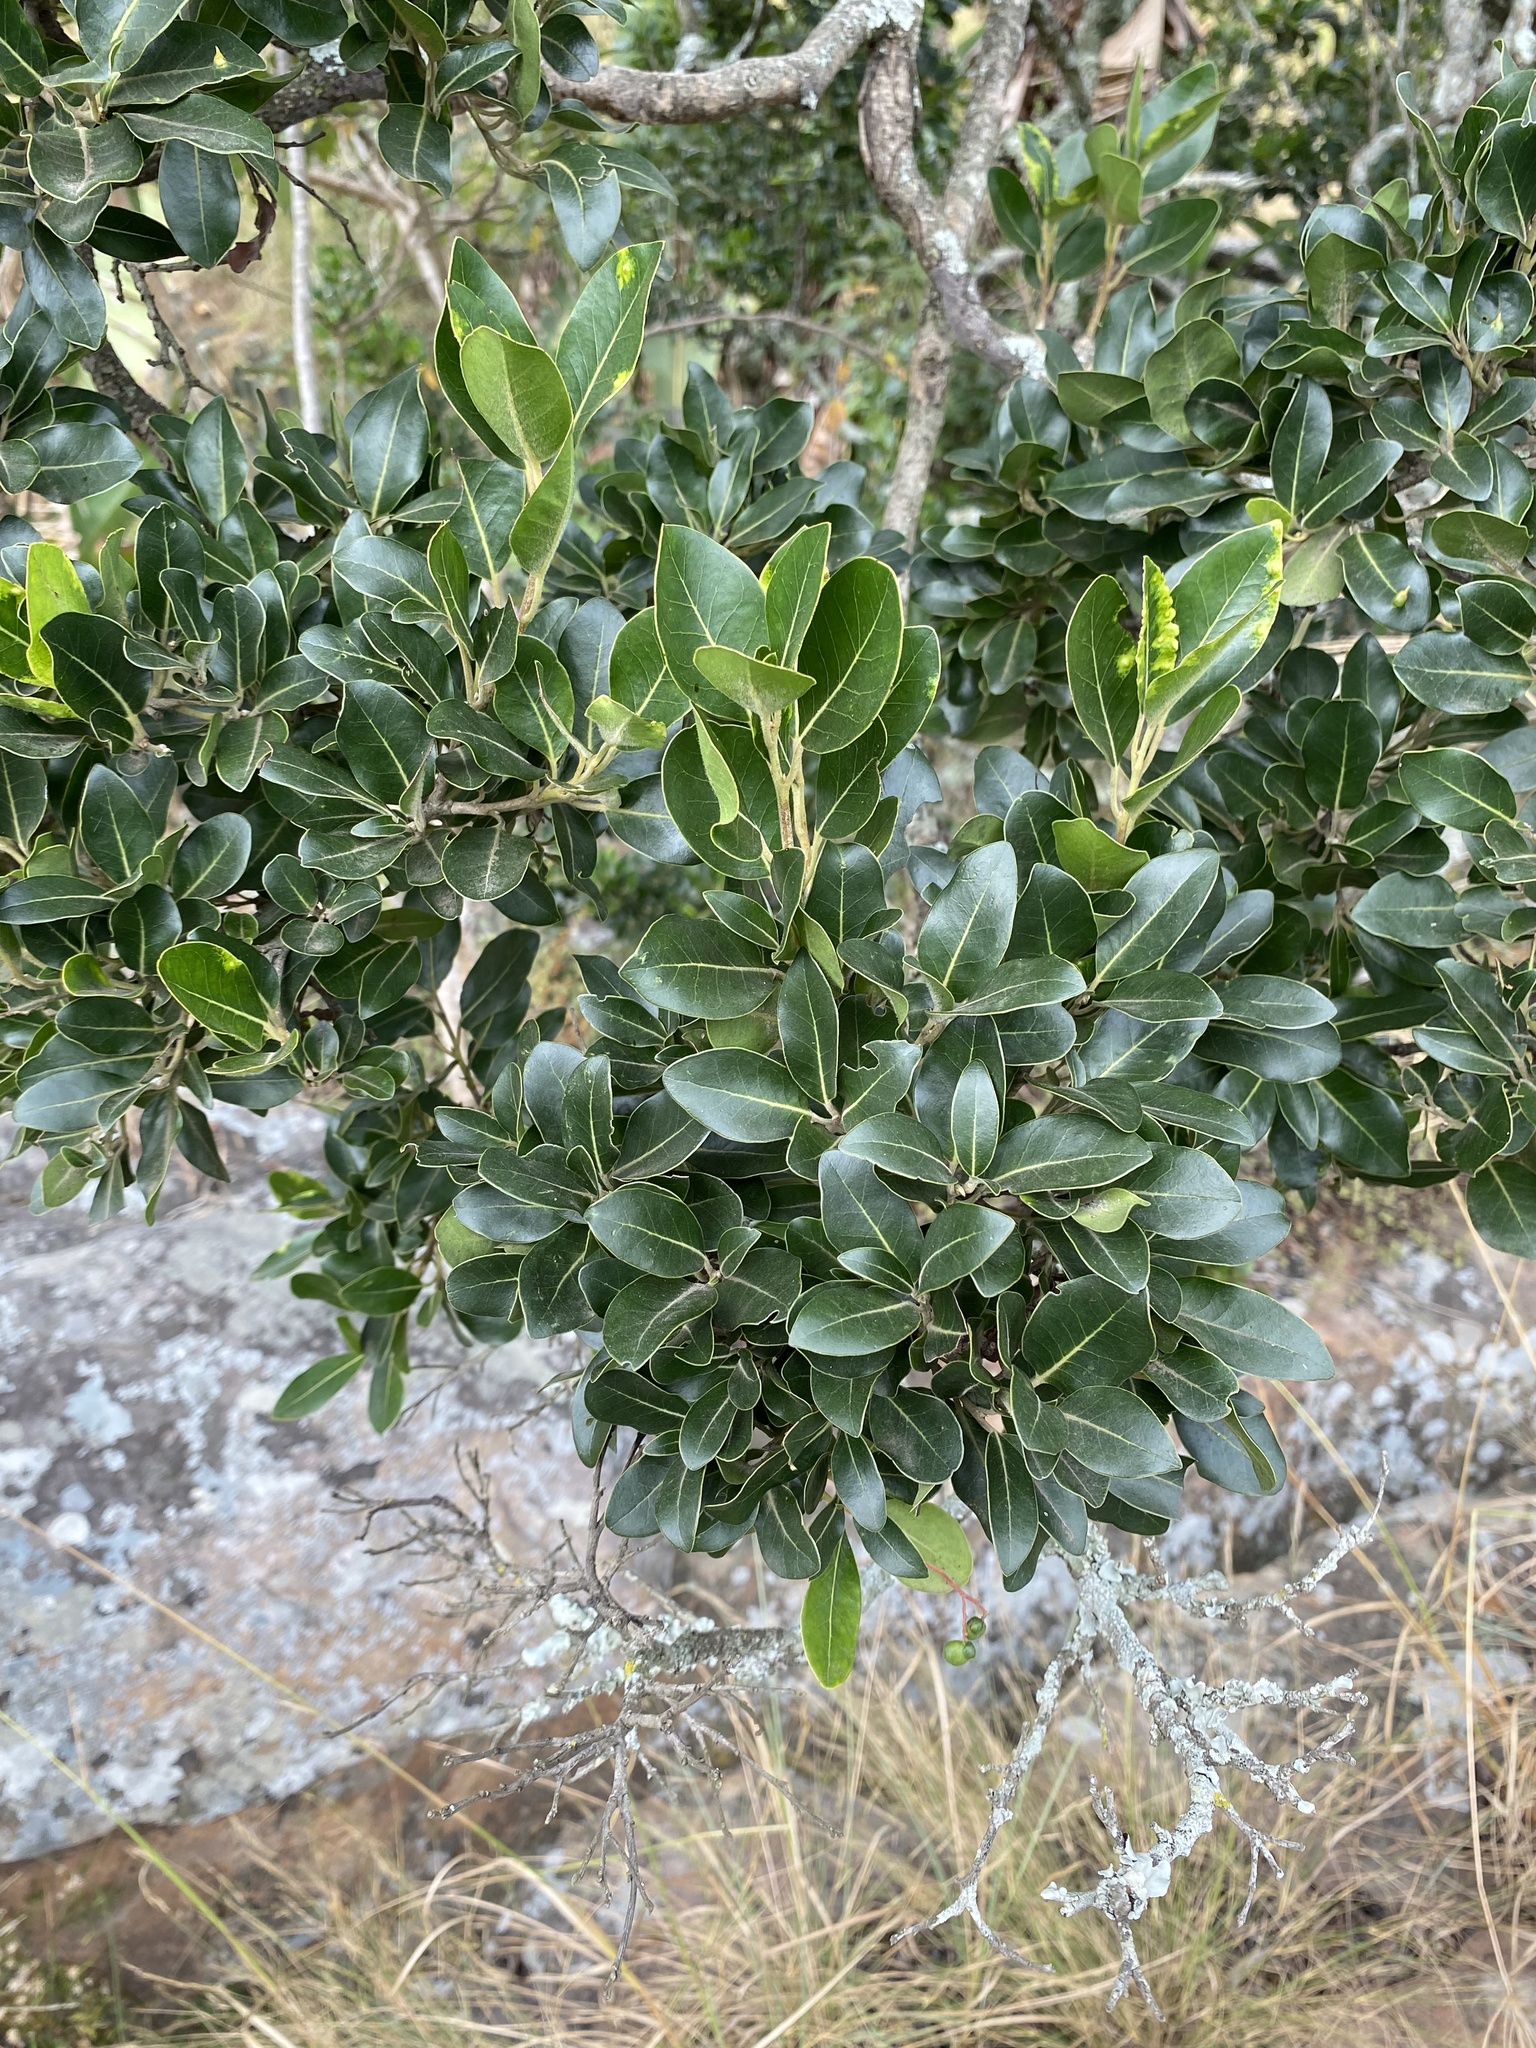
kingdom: Plantae
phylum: Tracheophyta
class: Magnoliopsida
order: Metteniusales
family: Metteniusaceae
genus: Apodytes
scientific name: Apodytes dimidiata
